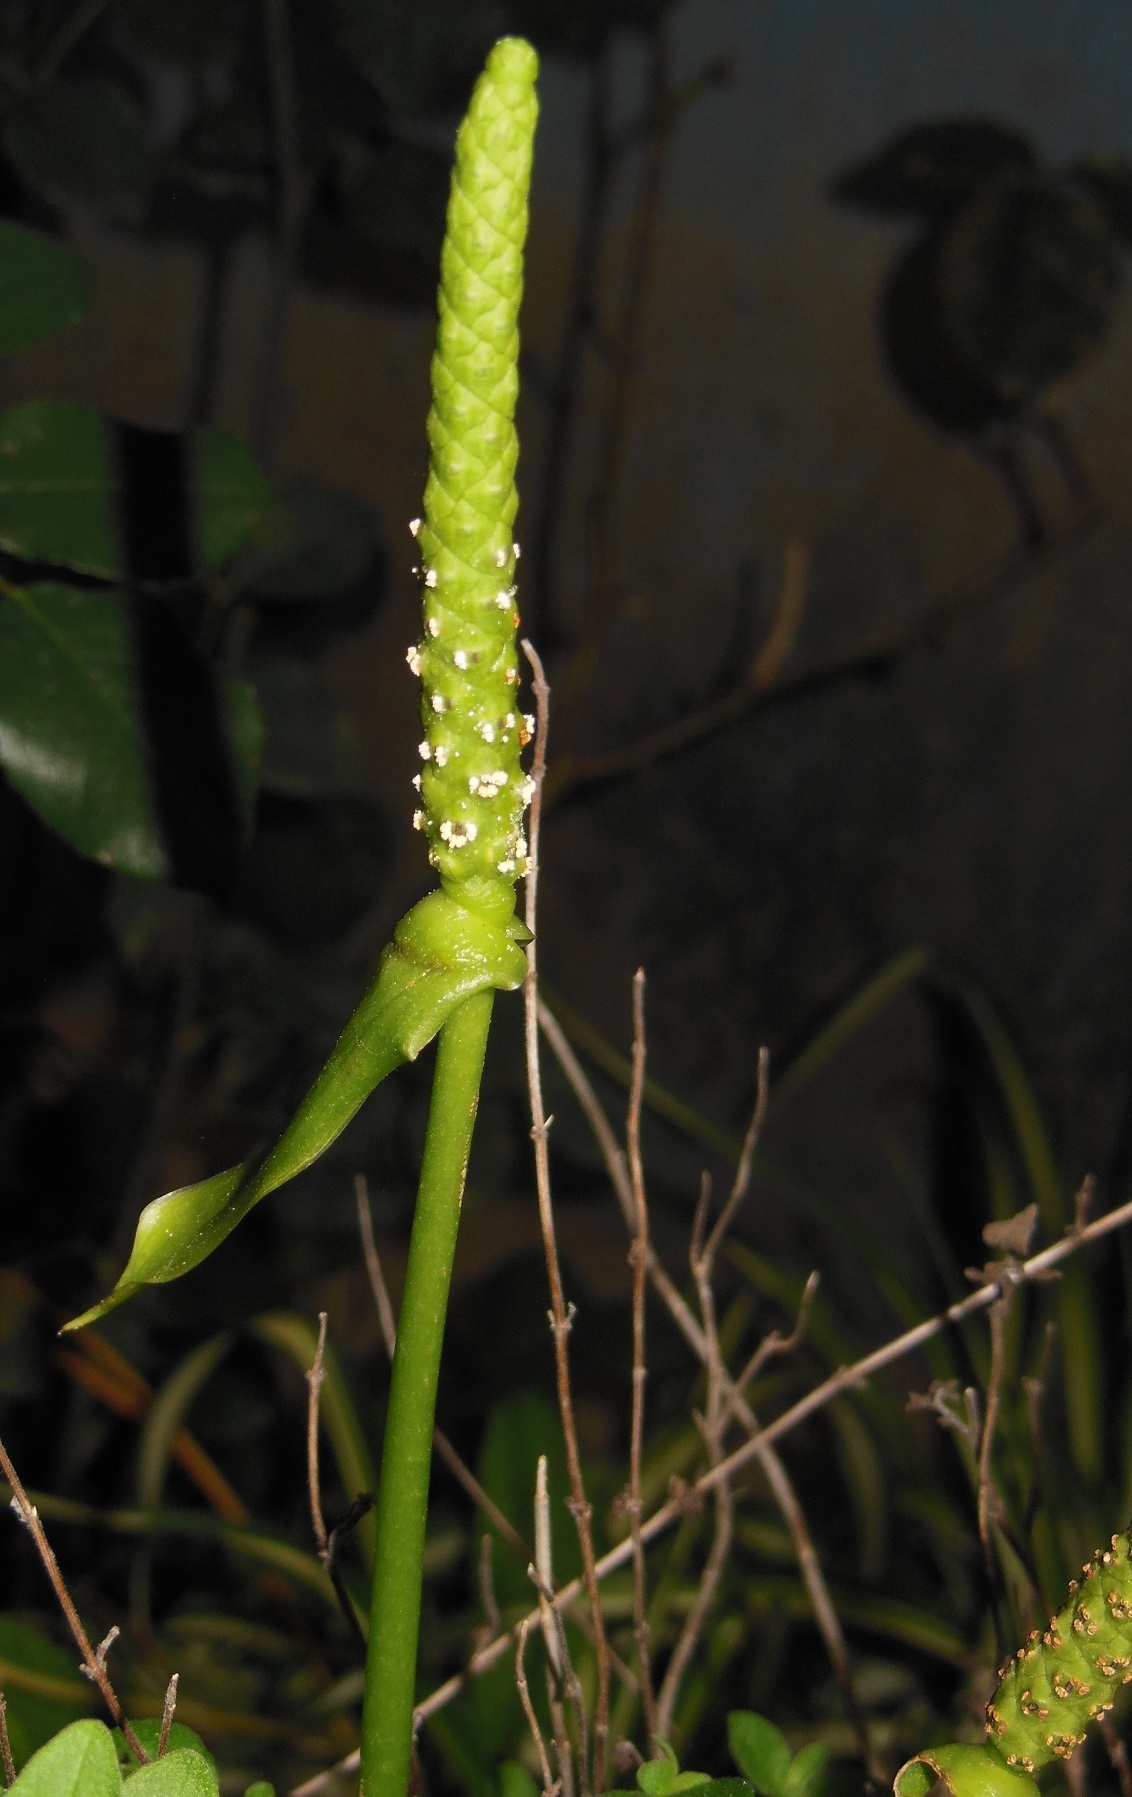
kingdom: Plantae
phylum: Tracheophyta
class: Liliopsida
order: Alismatales
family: Araceae
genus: Anthurium
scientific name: Anthurium leuconeurum
